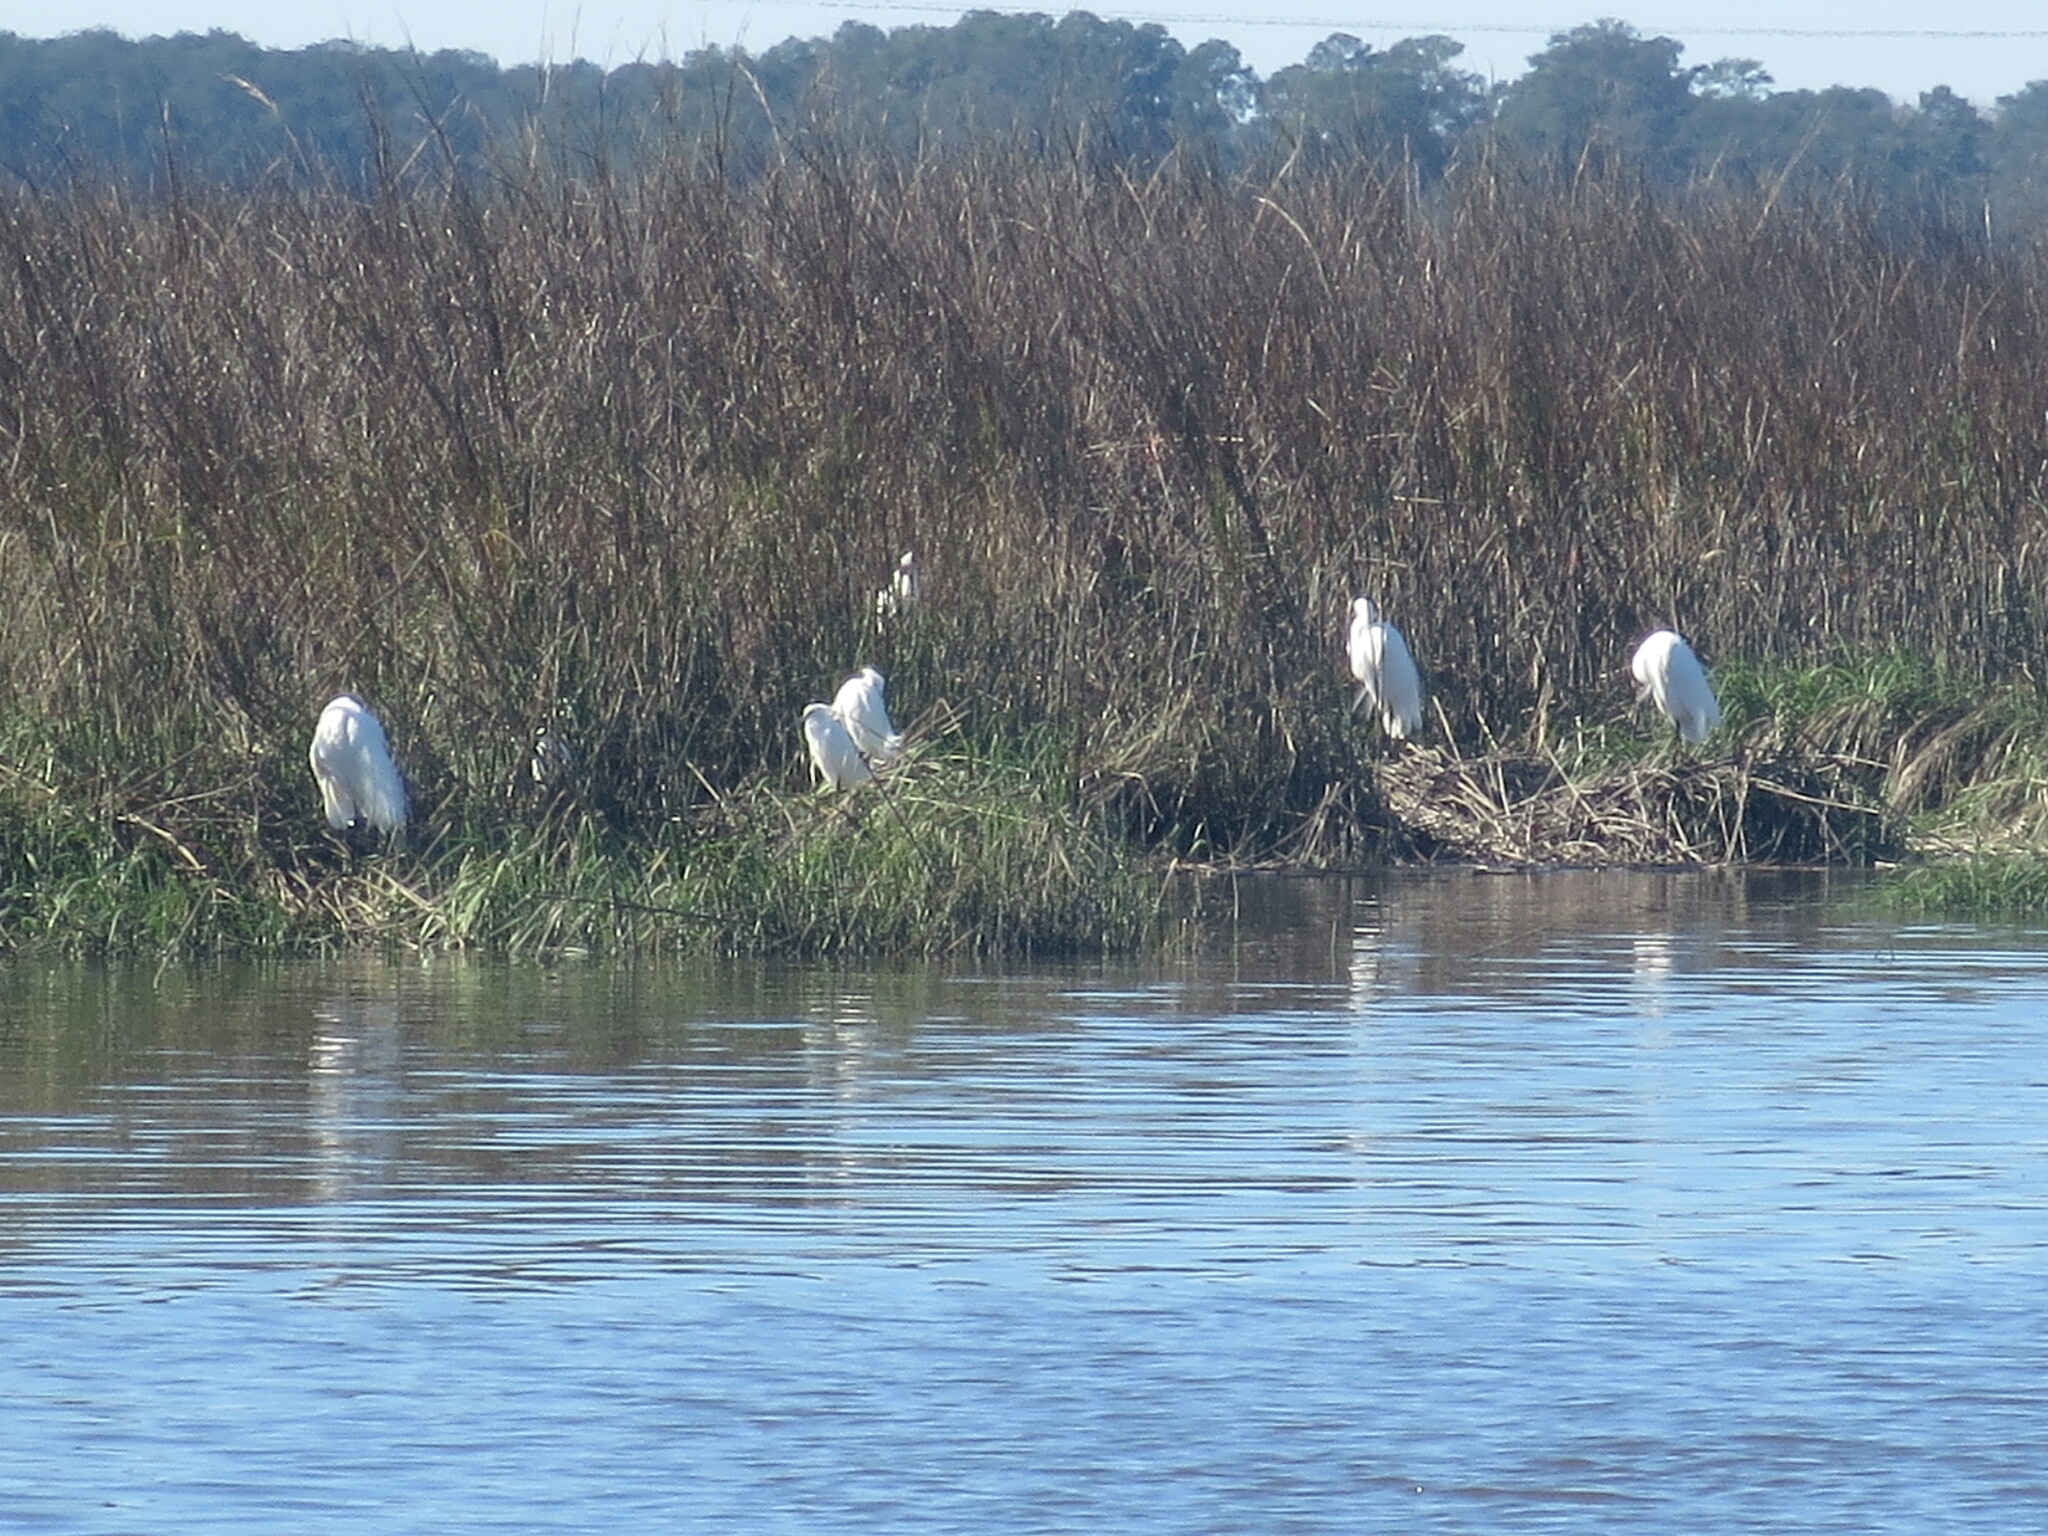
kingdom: Animalia
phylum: Chordata
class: Aves
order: Pelecaniformes
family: Ardeidae
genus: Ardea
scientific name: Ardea alba
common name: Great egret
